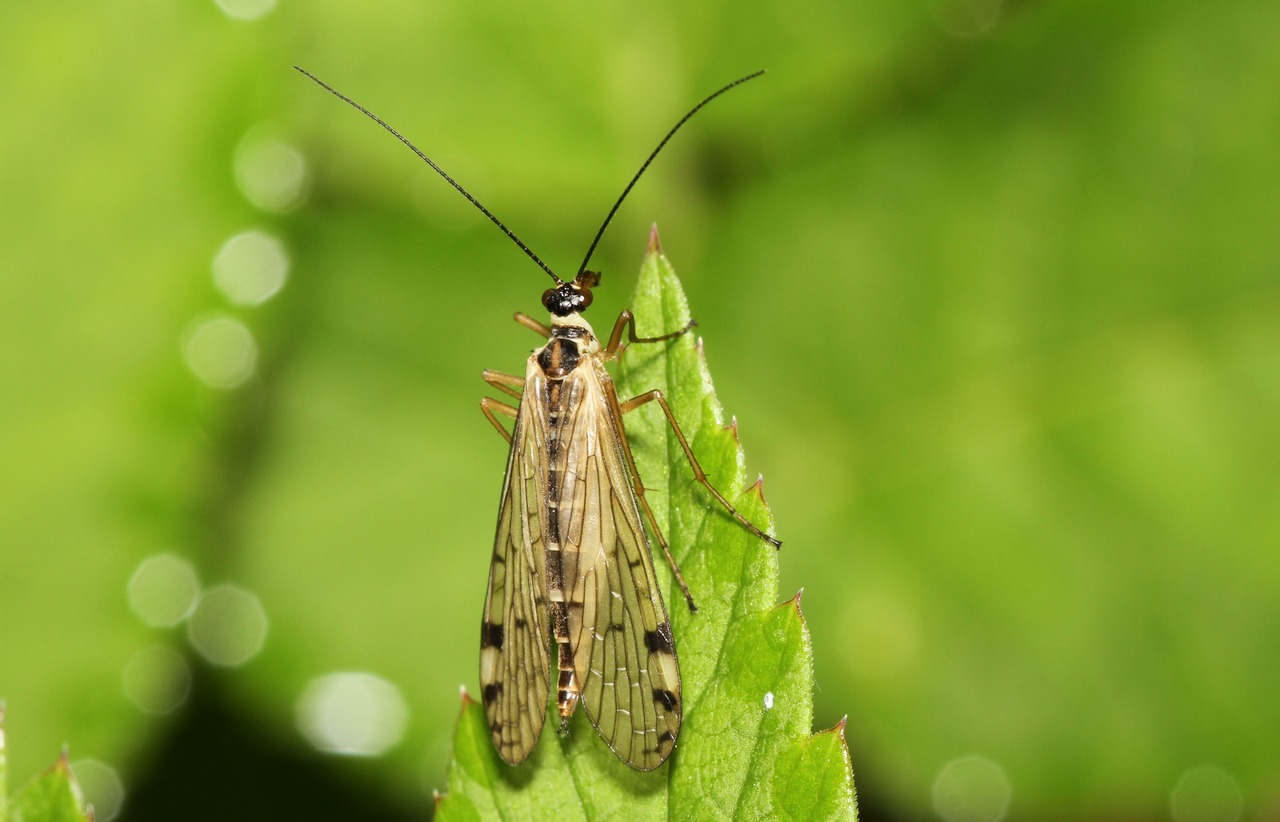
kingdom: Animalia
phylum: Arthropoda
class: Insecta
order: Mecoptera
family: Panorpidae
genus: Panorpa
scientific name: Panorpa alpina
